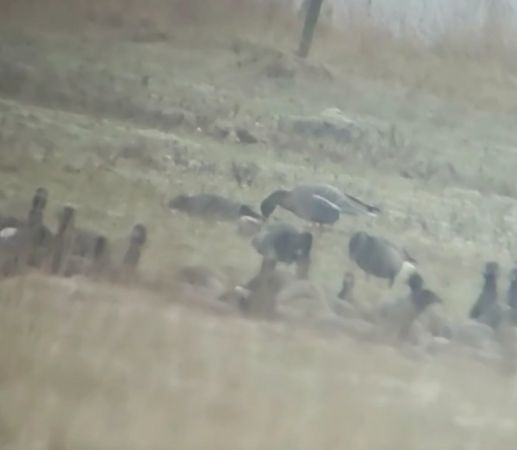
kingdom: Animalia
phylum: Chordata
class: Aves
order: Anseriformes
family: Anatidae
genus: Anser
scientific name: Anser brachyrhynchus
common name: Pink-footed goose
